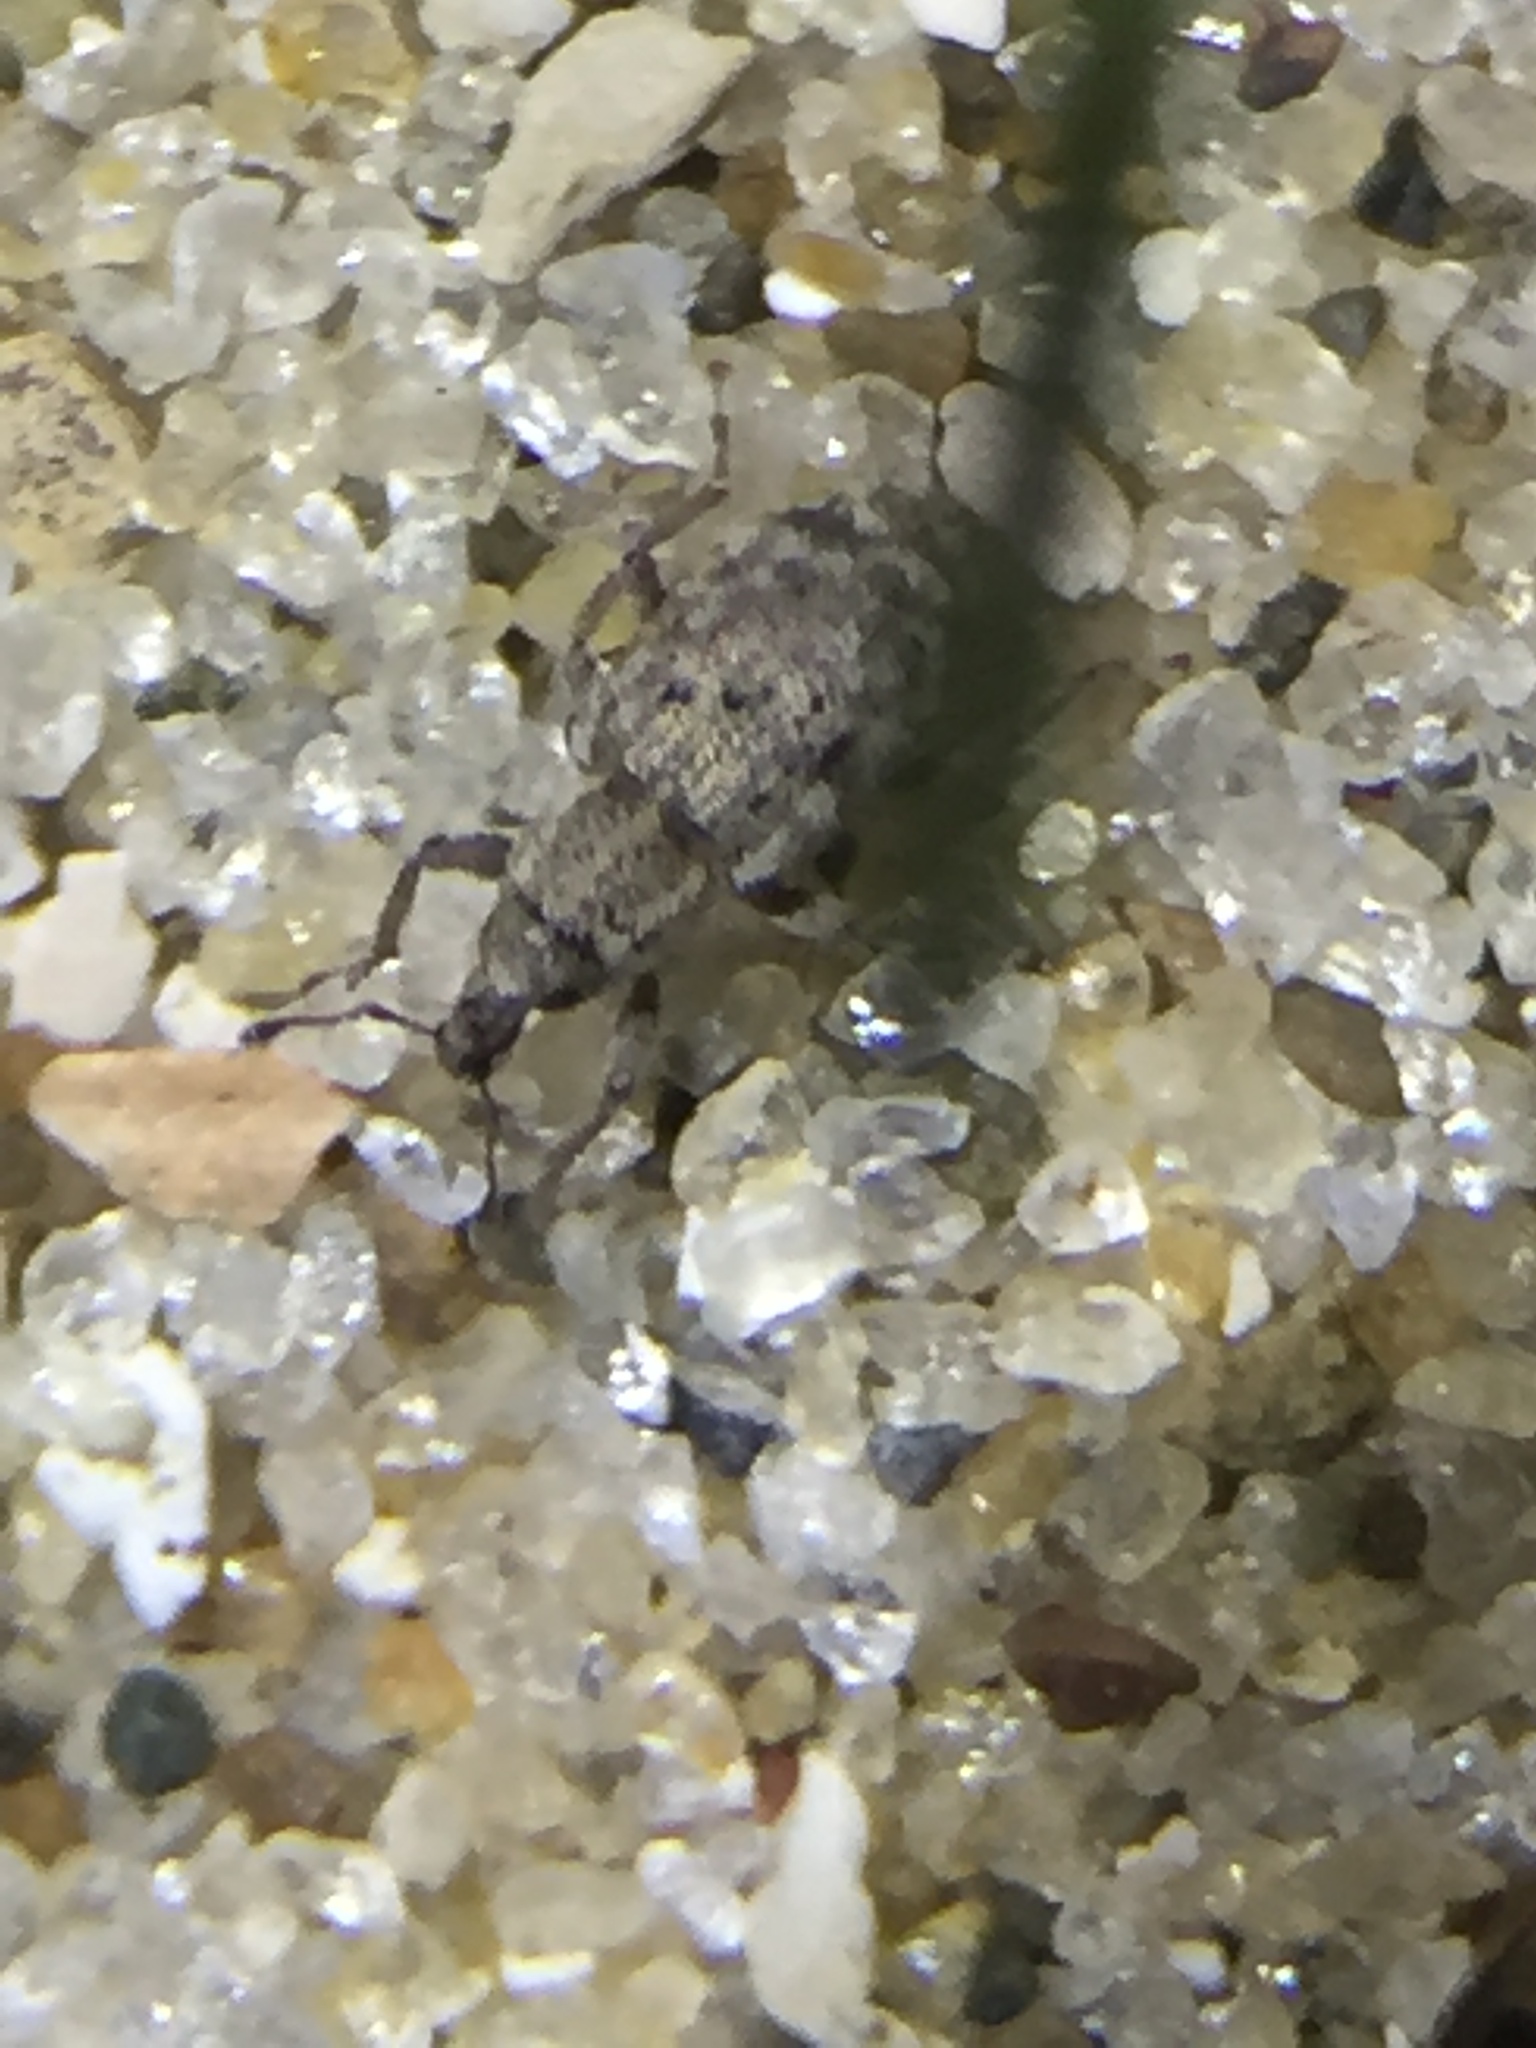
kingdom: Animalia
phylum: Arthropoda
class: Insecta
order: Coleoptera
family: Curculionidae
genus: Listronotus
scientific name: Listronotus bonariensis
